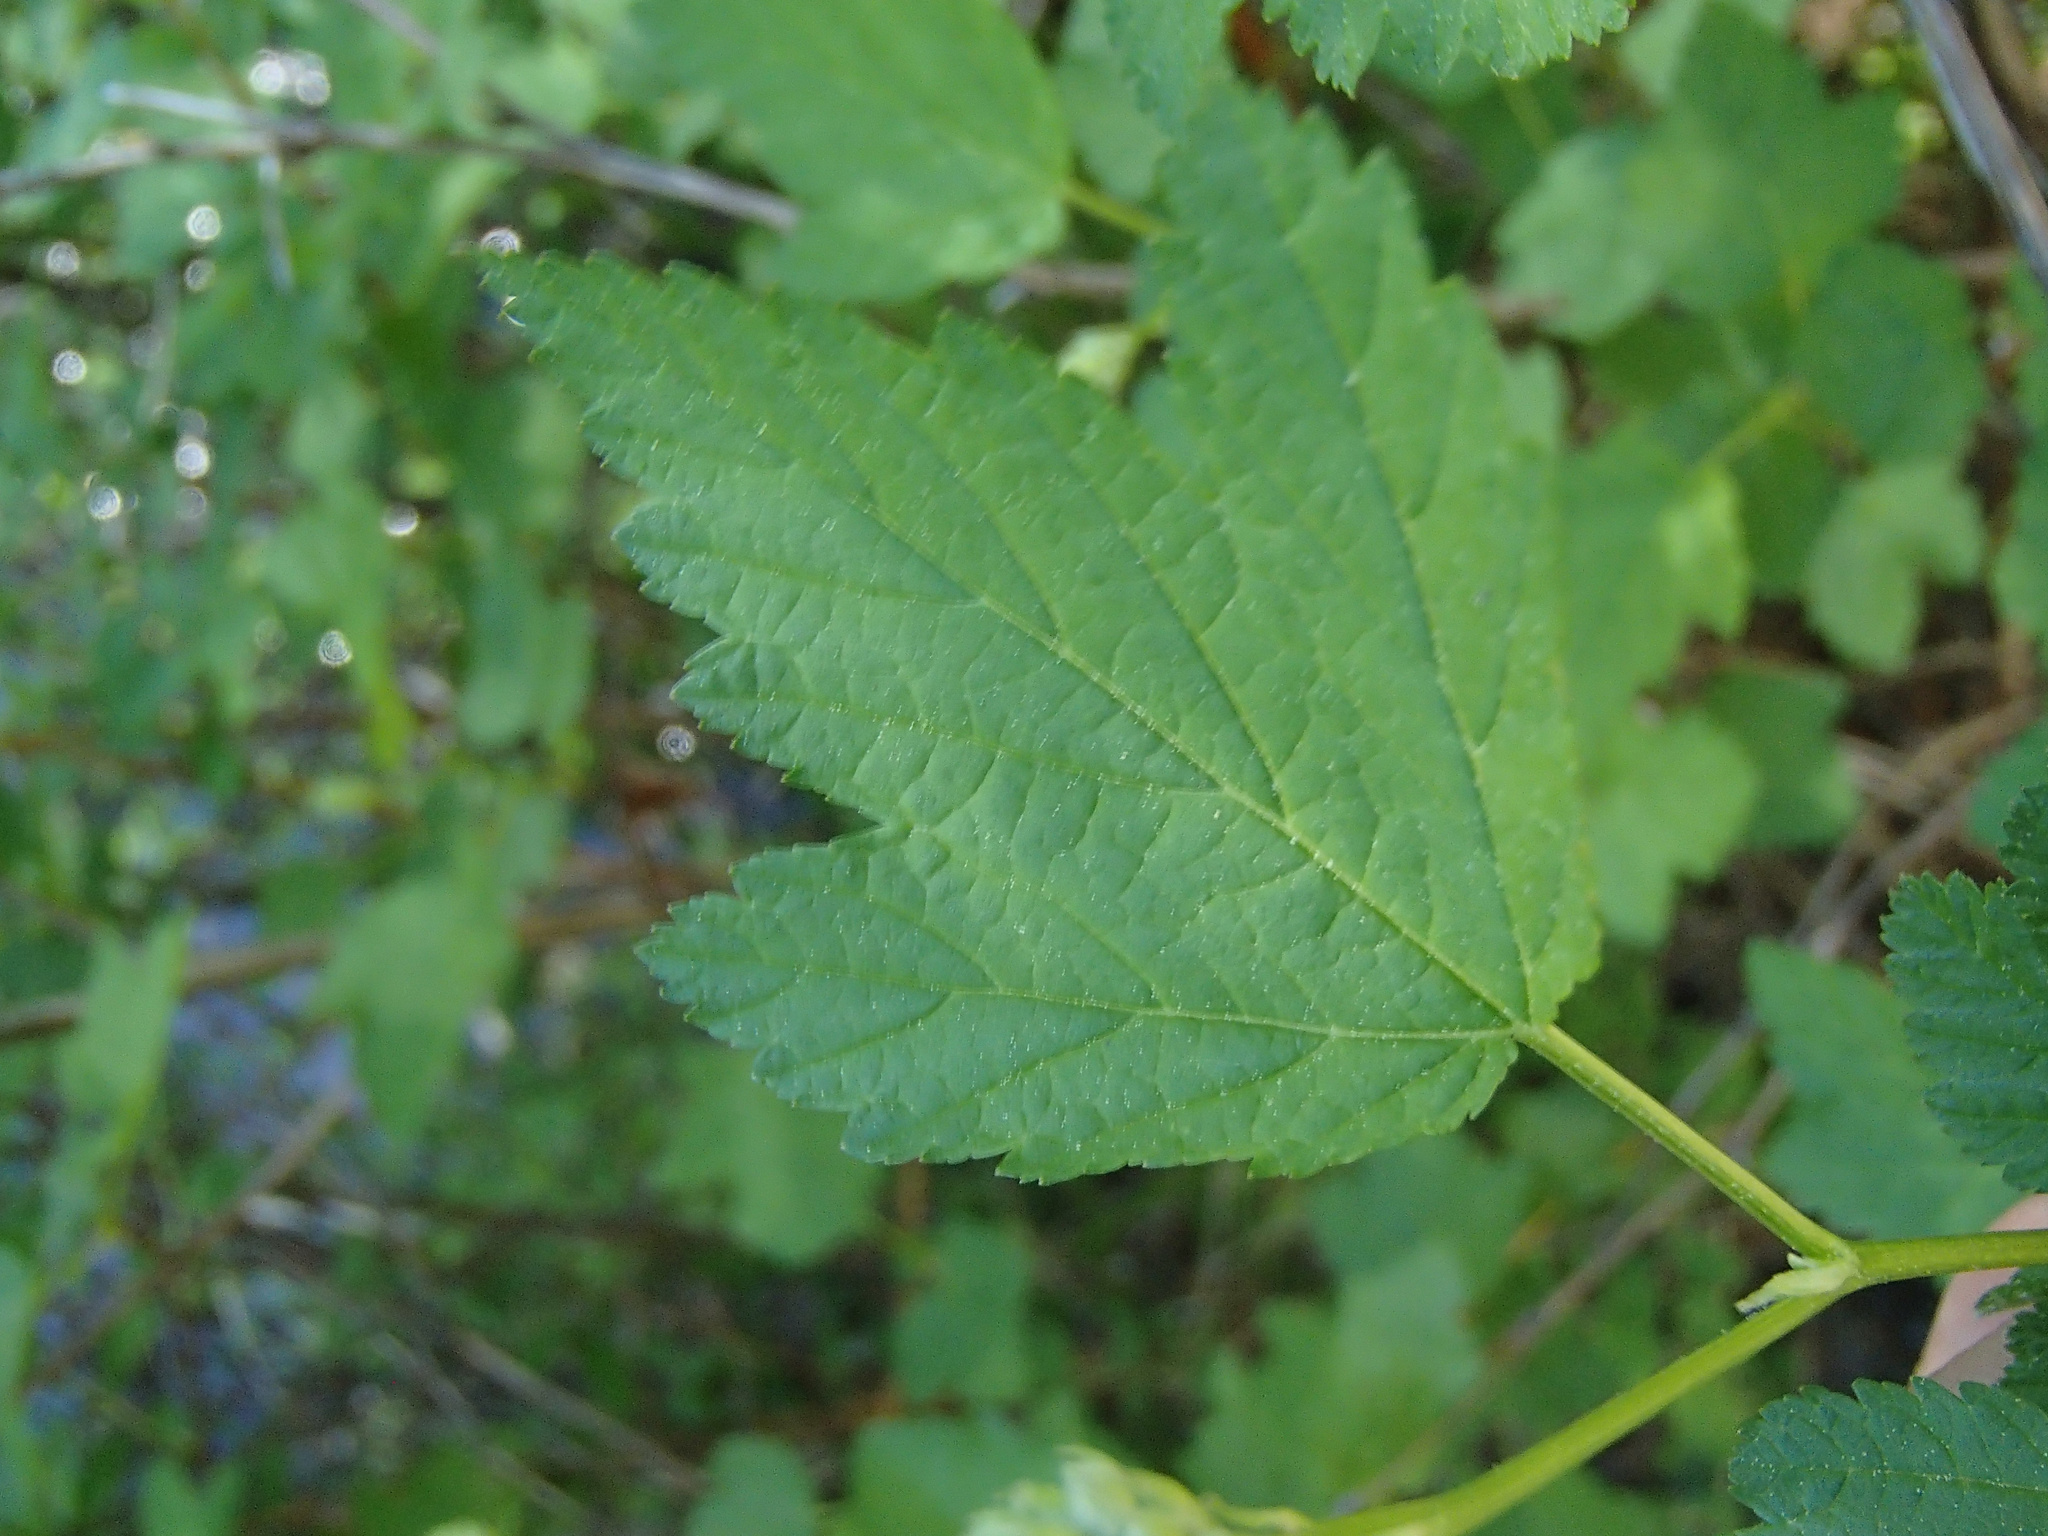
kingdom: Plantae
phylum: Tracheophyta
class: Magnoliopsida
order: Rosales
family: Rosaceae
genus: Physocarpus
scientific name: Physocarpus capitatus
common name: Pacific ninebark
